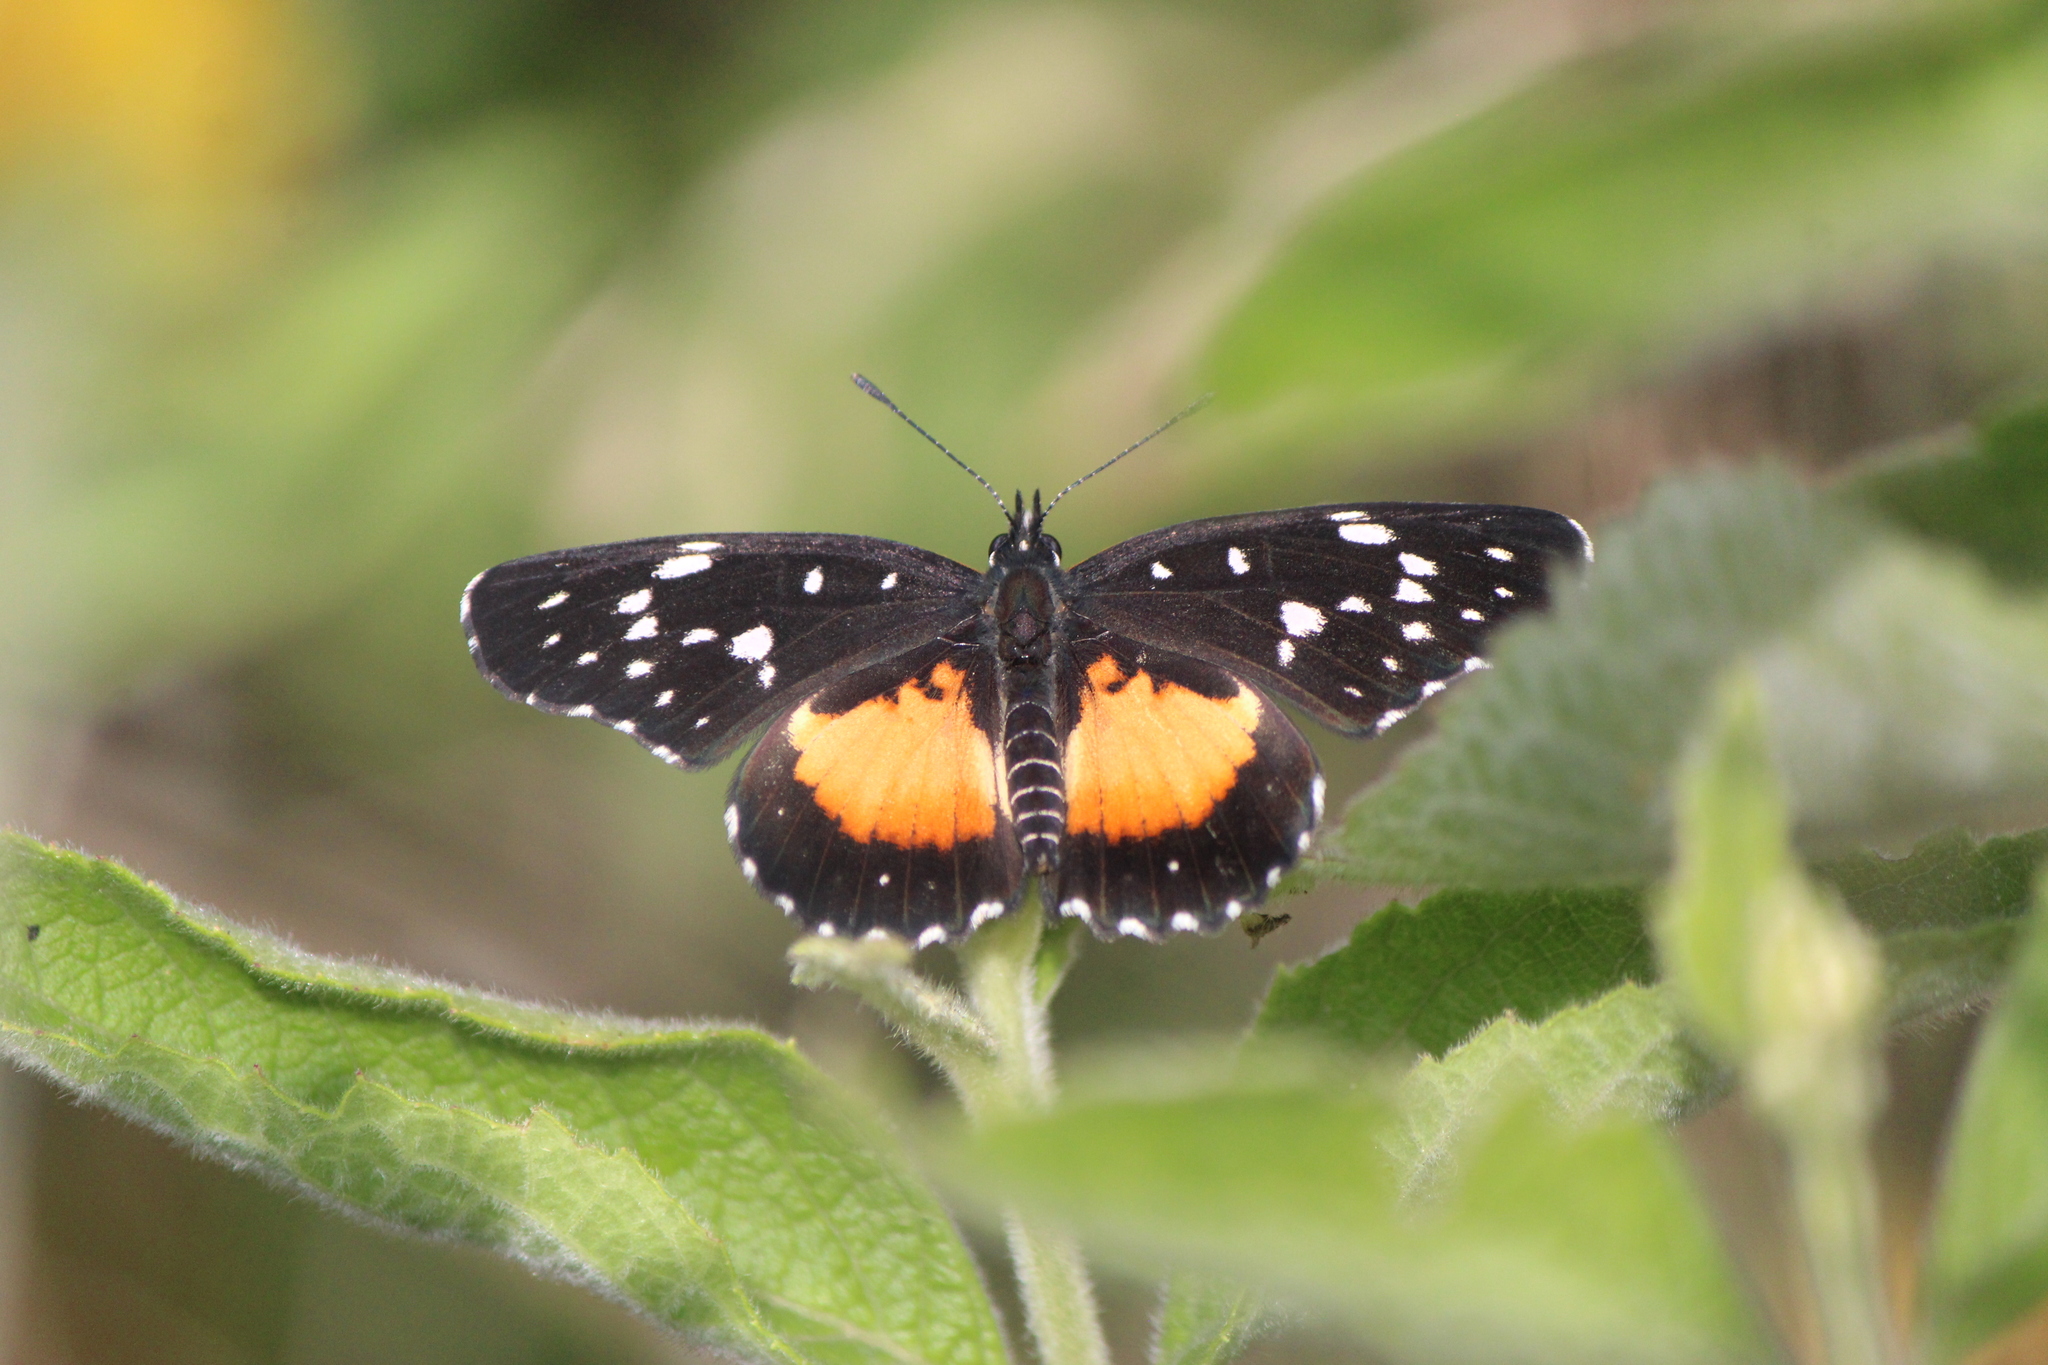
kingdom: Animalia
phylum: Arthropoda
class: Insecta
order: Lepidoptera
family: Nymphalidae
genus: Chlosyne
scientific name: Chlosyne rosita
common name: Rosita patch
